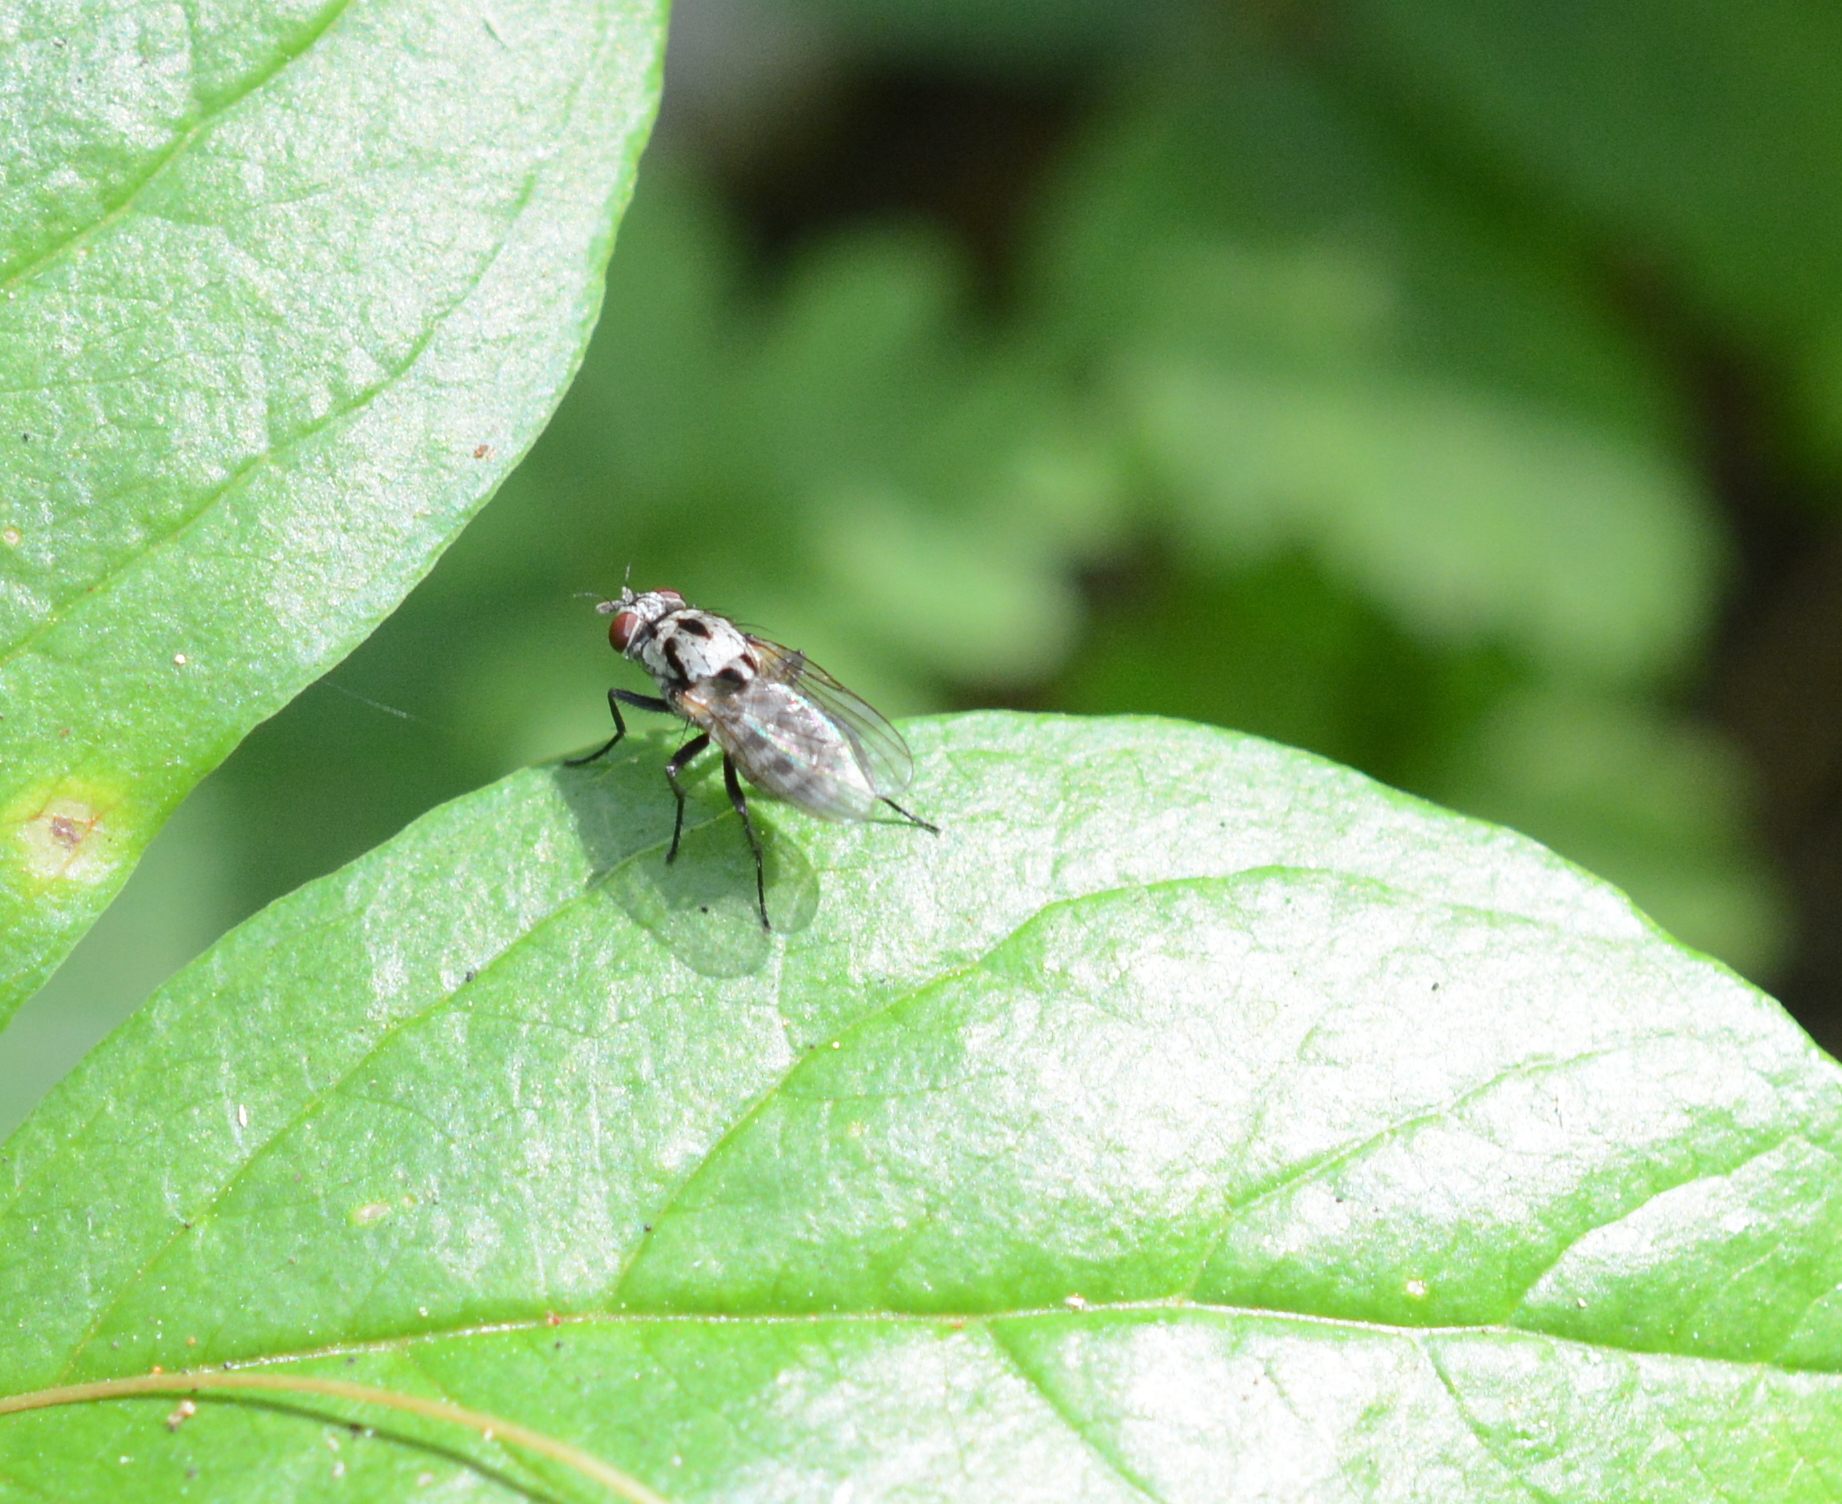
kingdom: Animalia
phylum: Arthropoda
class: Insecta
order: Diptera
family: Anthomyiidae
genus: Anthomyia
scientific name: Anthomyia procellaris
